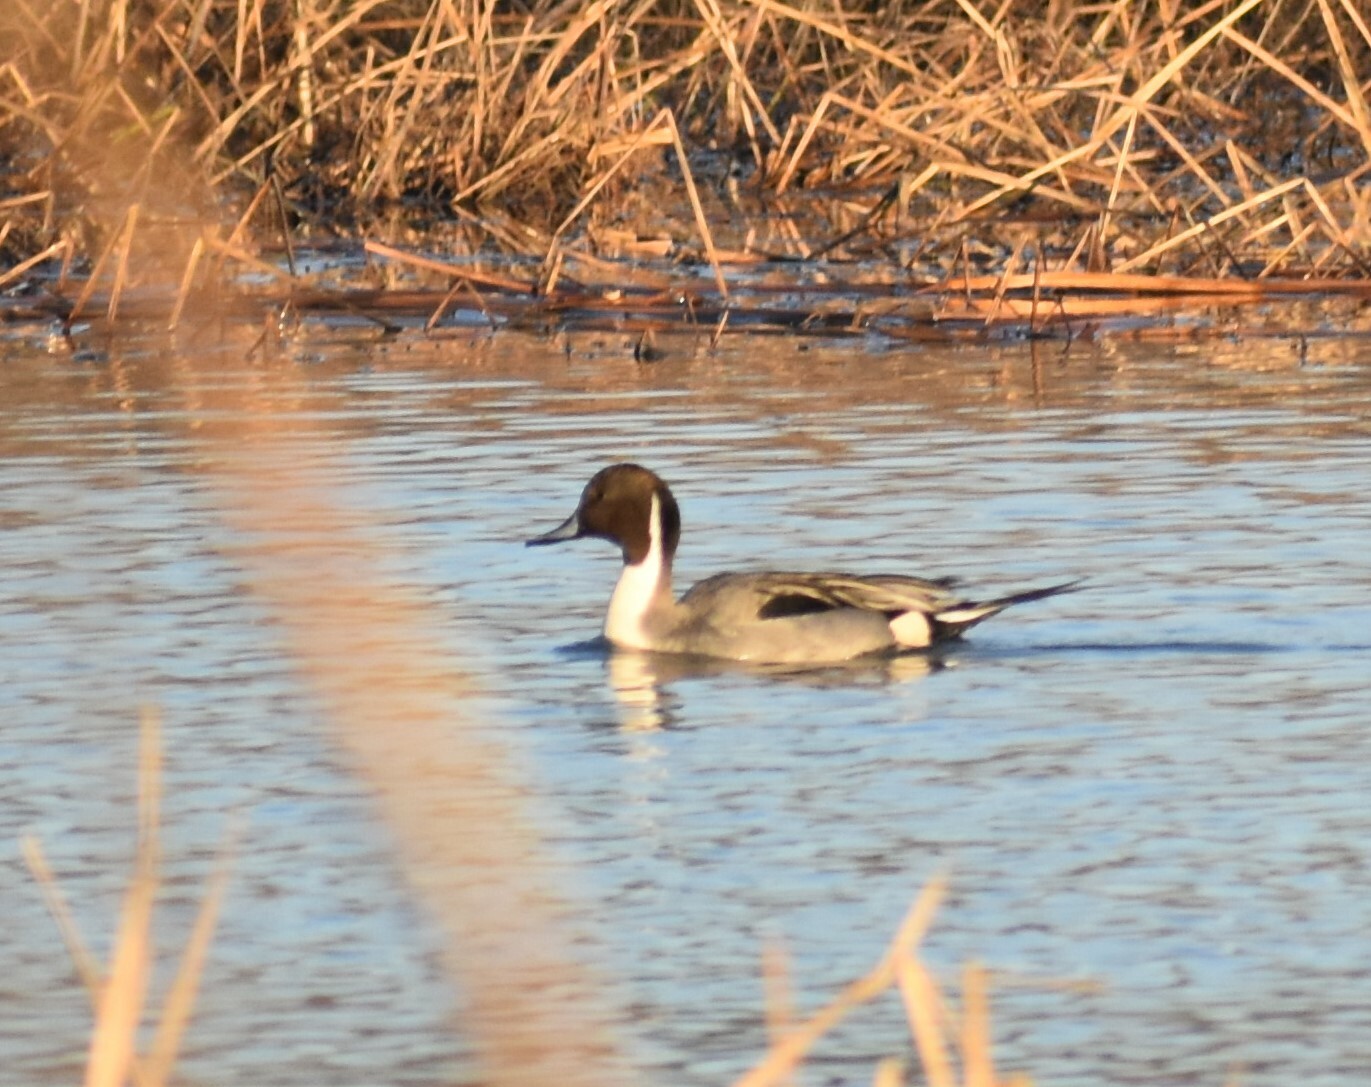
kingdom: Animalia
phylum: Chordata
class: Aves
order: Anseriformes
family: Anatidae
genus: Anas
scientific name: Anas acuta
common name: Northern pintail
